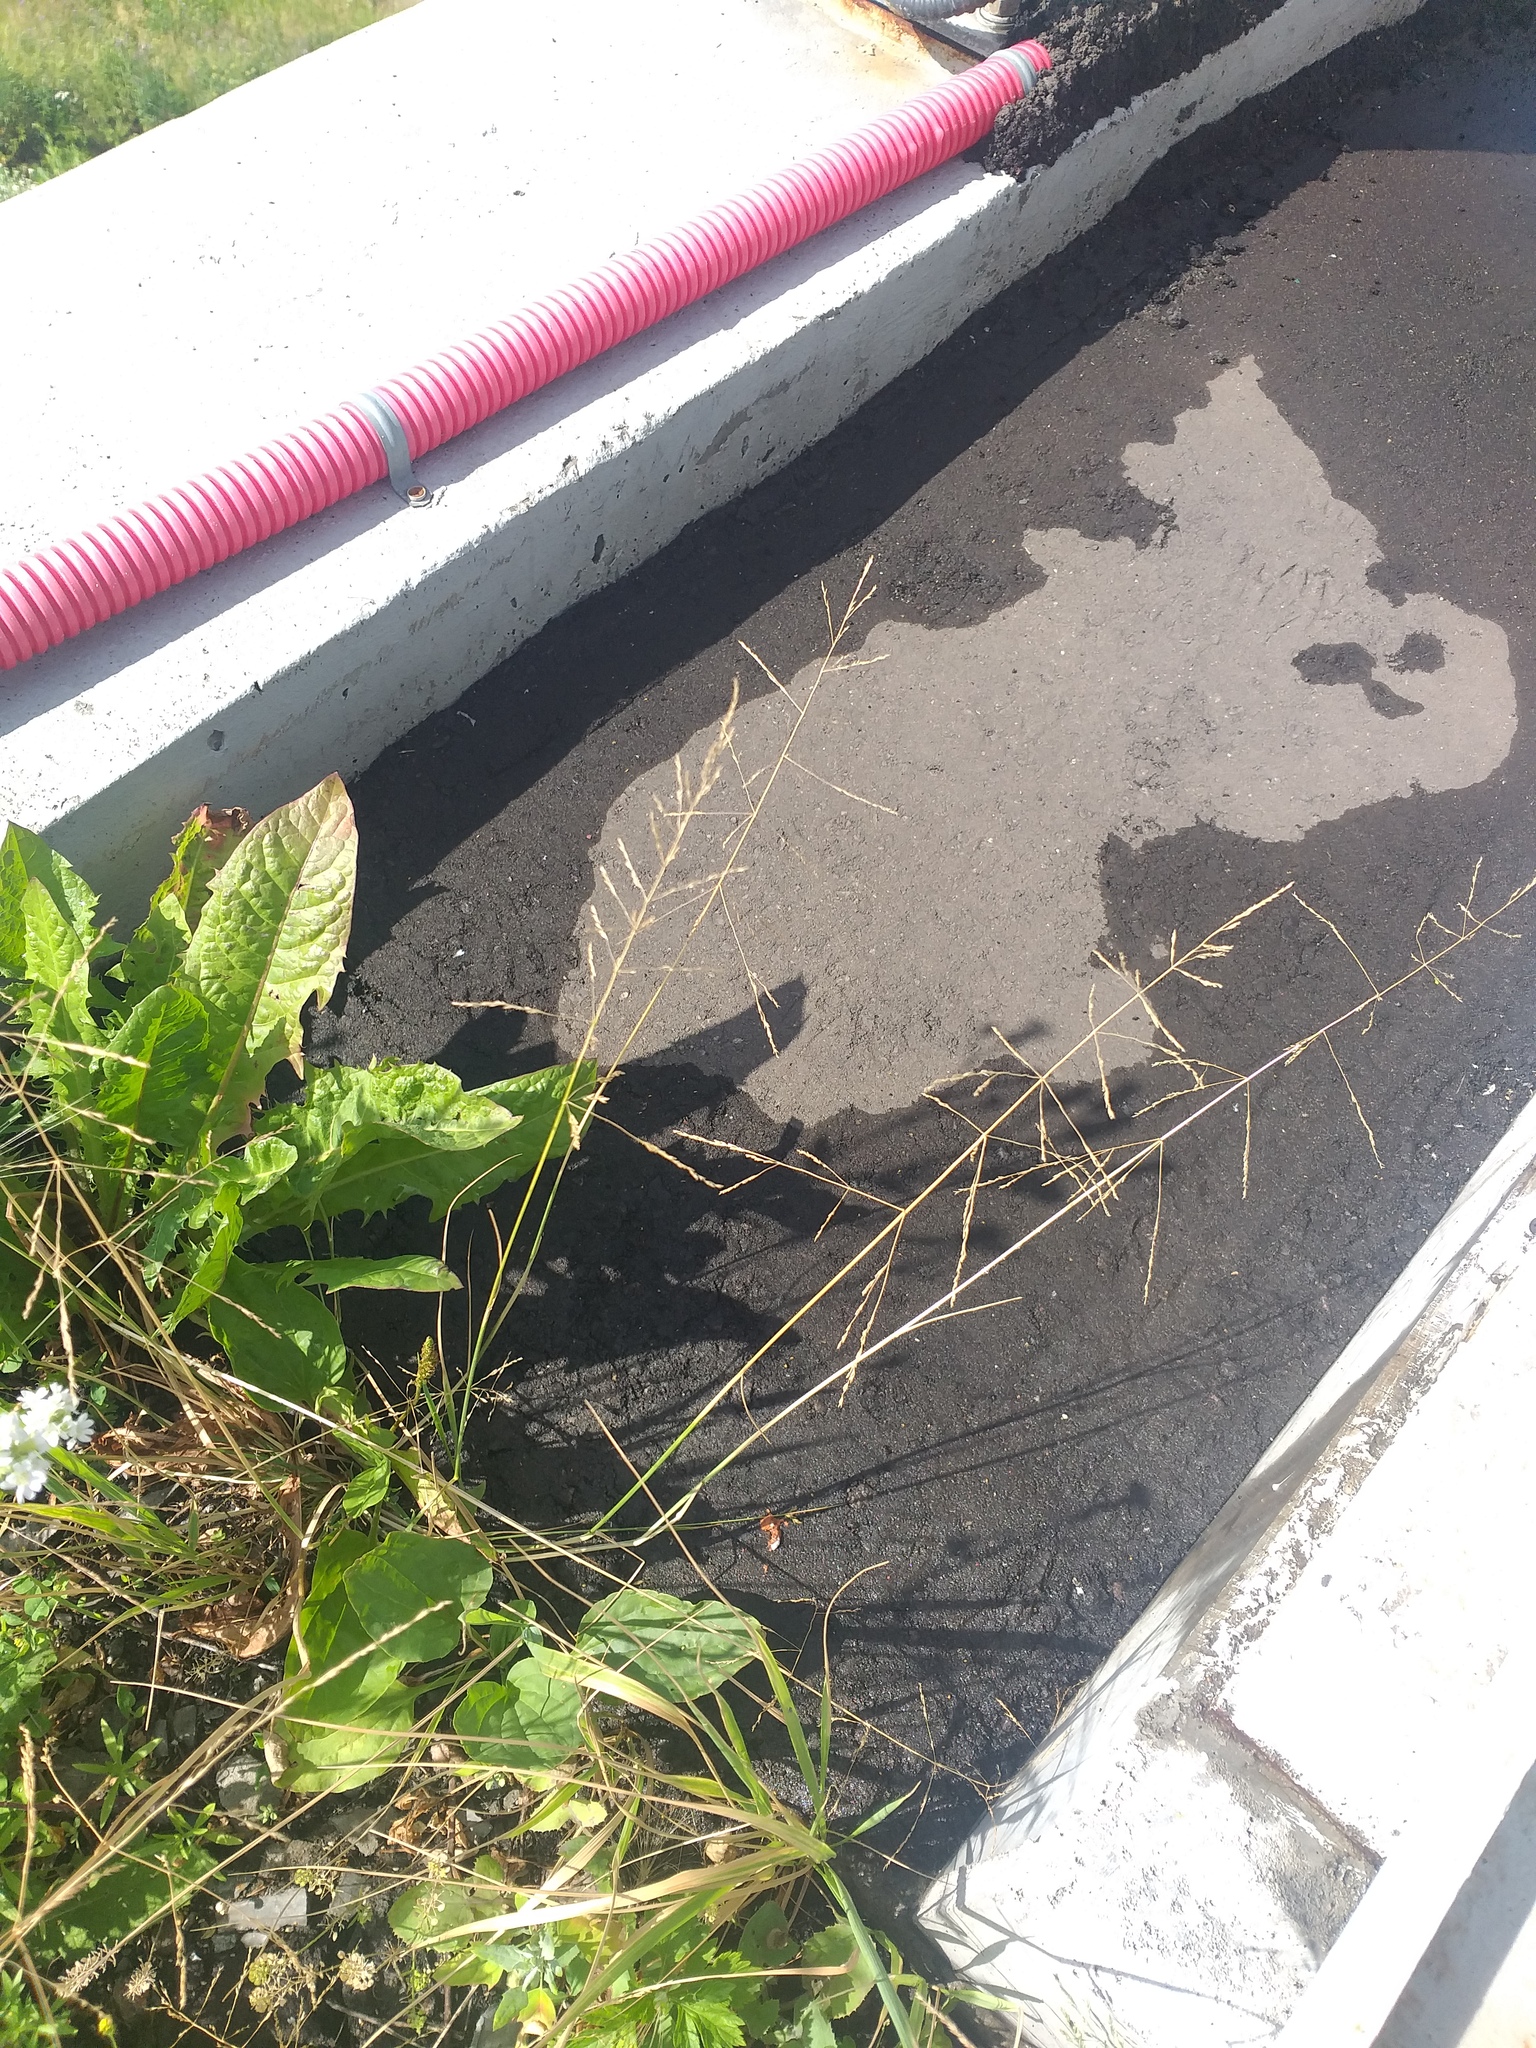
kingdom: Plantae
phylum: Tracheophyta
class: Liliopsida
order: Poales
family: Poaceae
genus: Puccinellia
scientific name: Puccinellia distans
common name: Weeping alkaligrass
